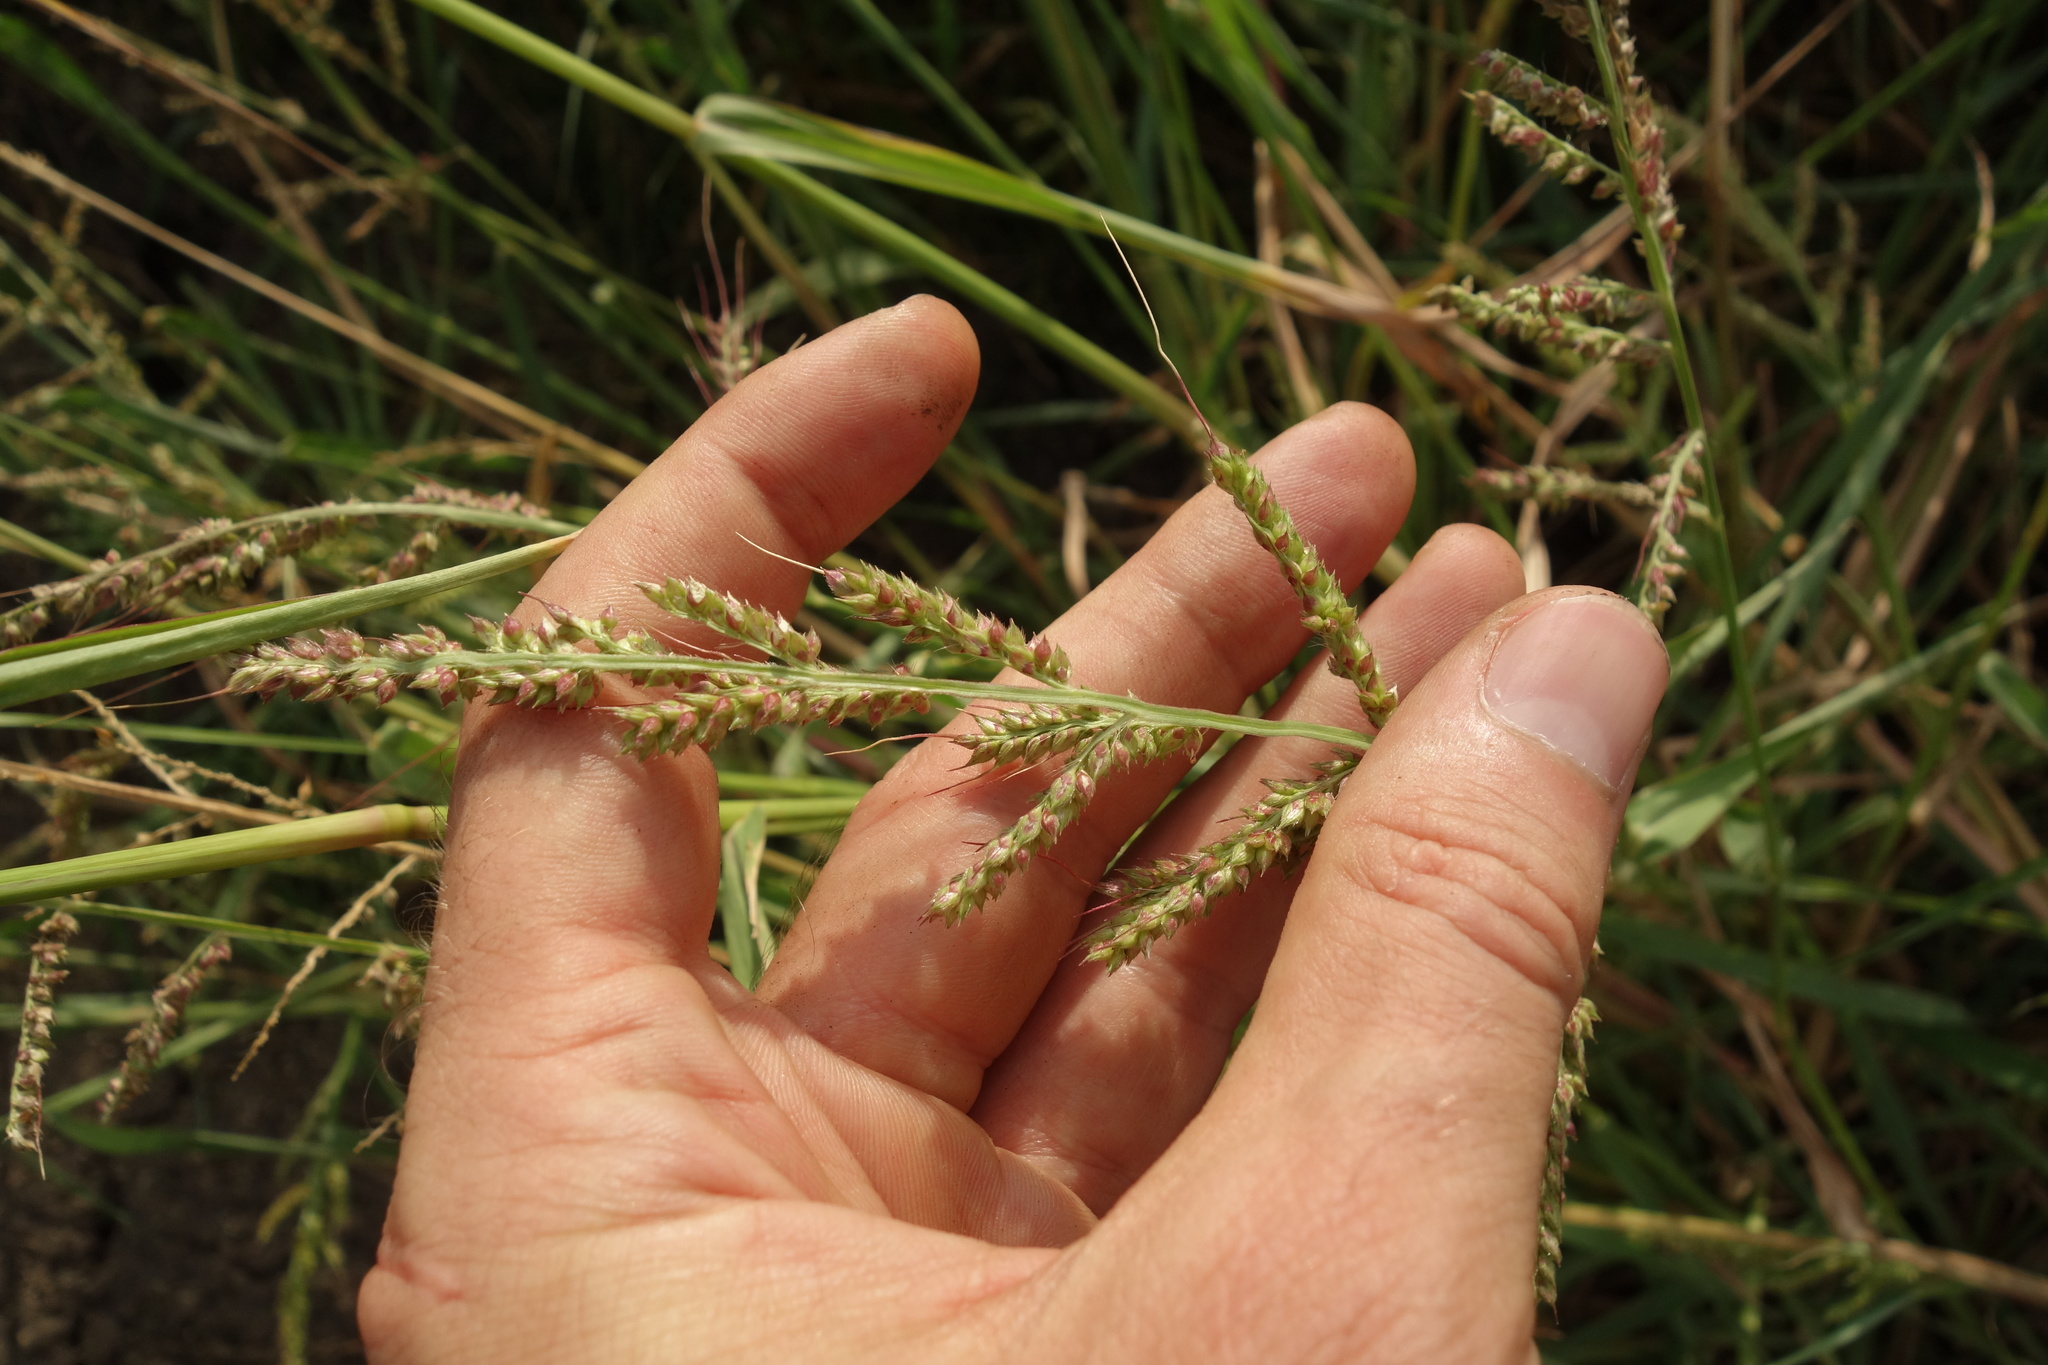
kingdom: Plantae
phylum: Tracheophyta
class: Liliopsida
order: Poales
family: Poaceae
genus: Echinochloa
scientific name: Echinochloa crus-galli
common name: Cockspur
